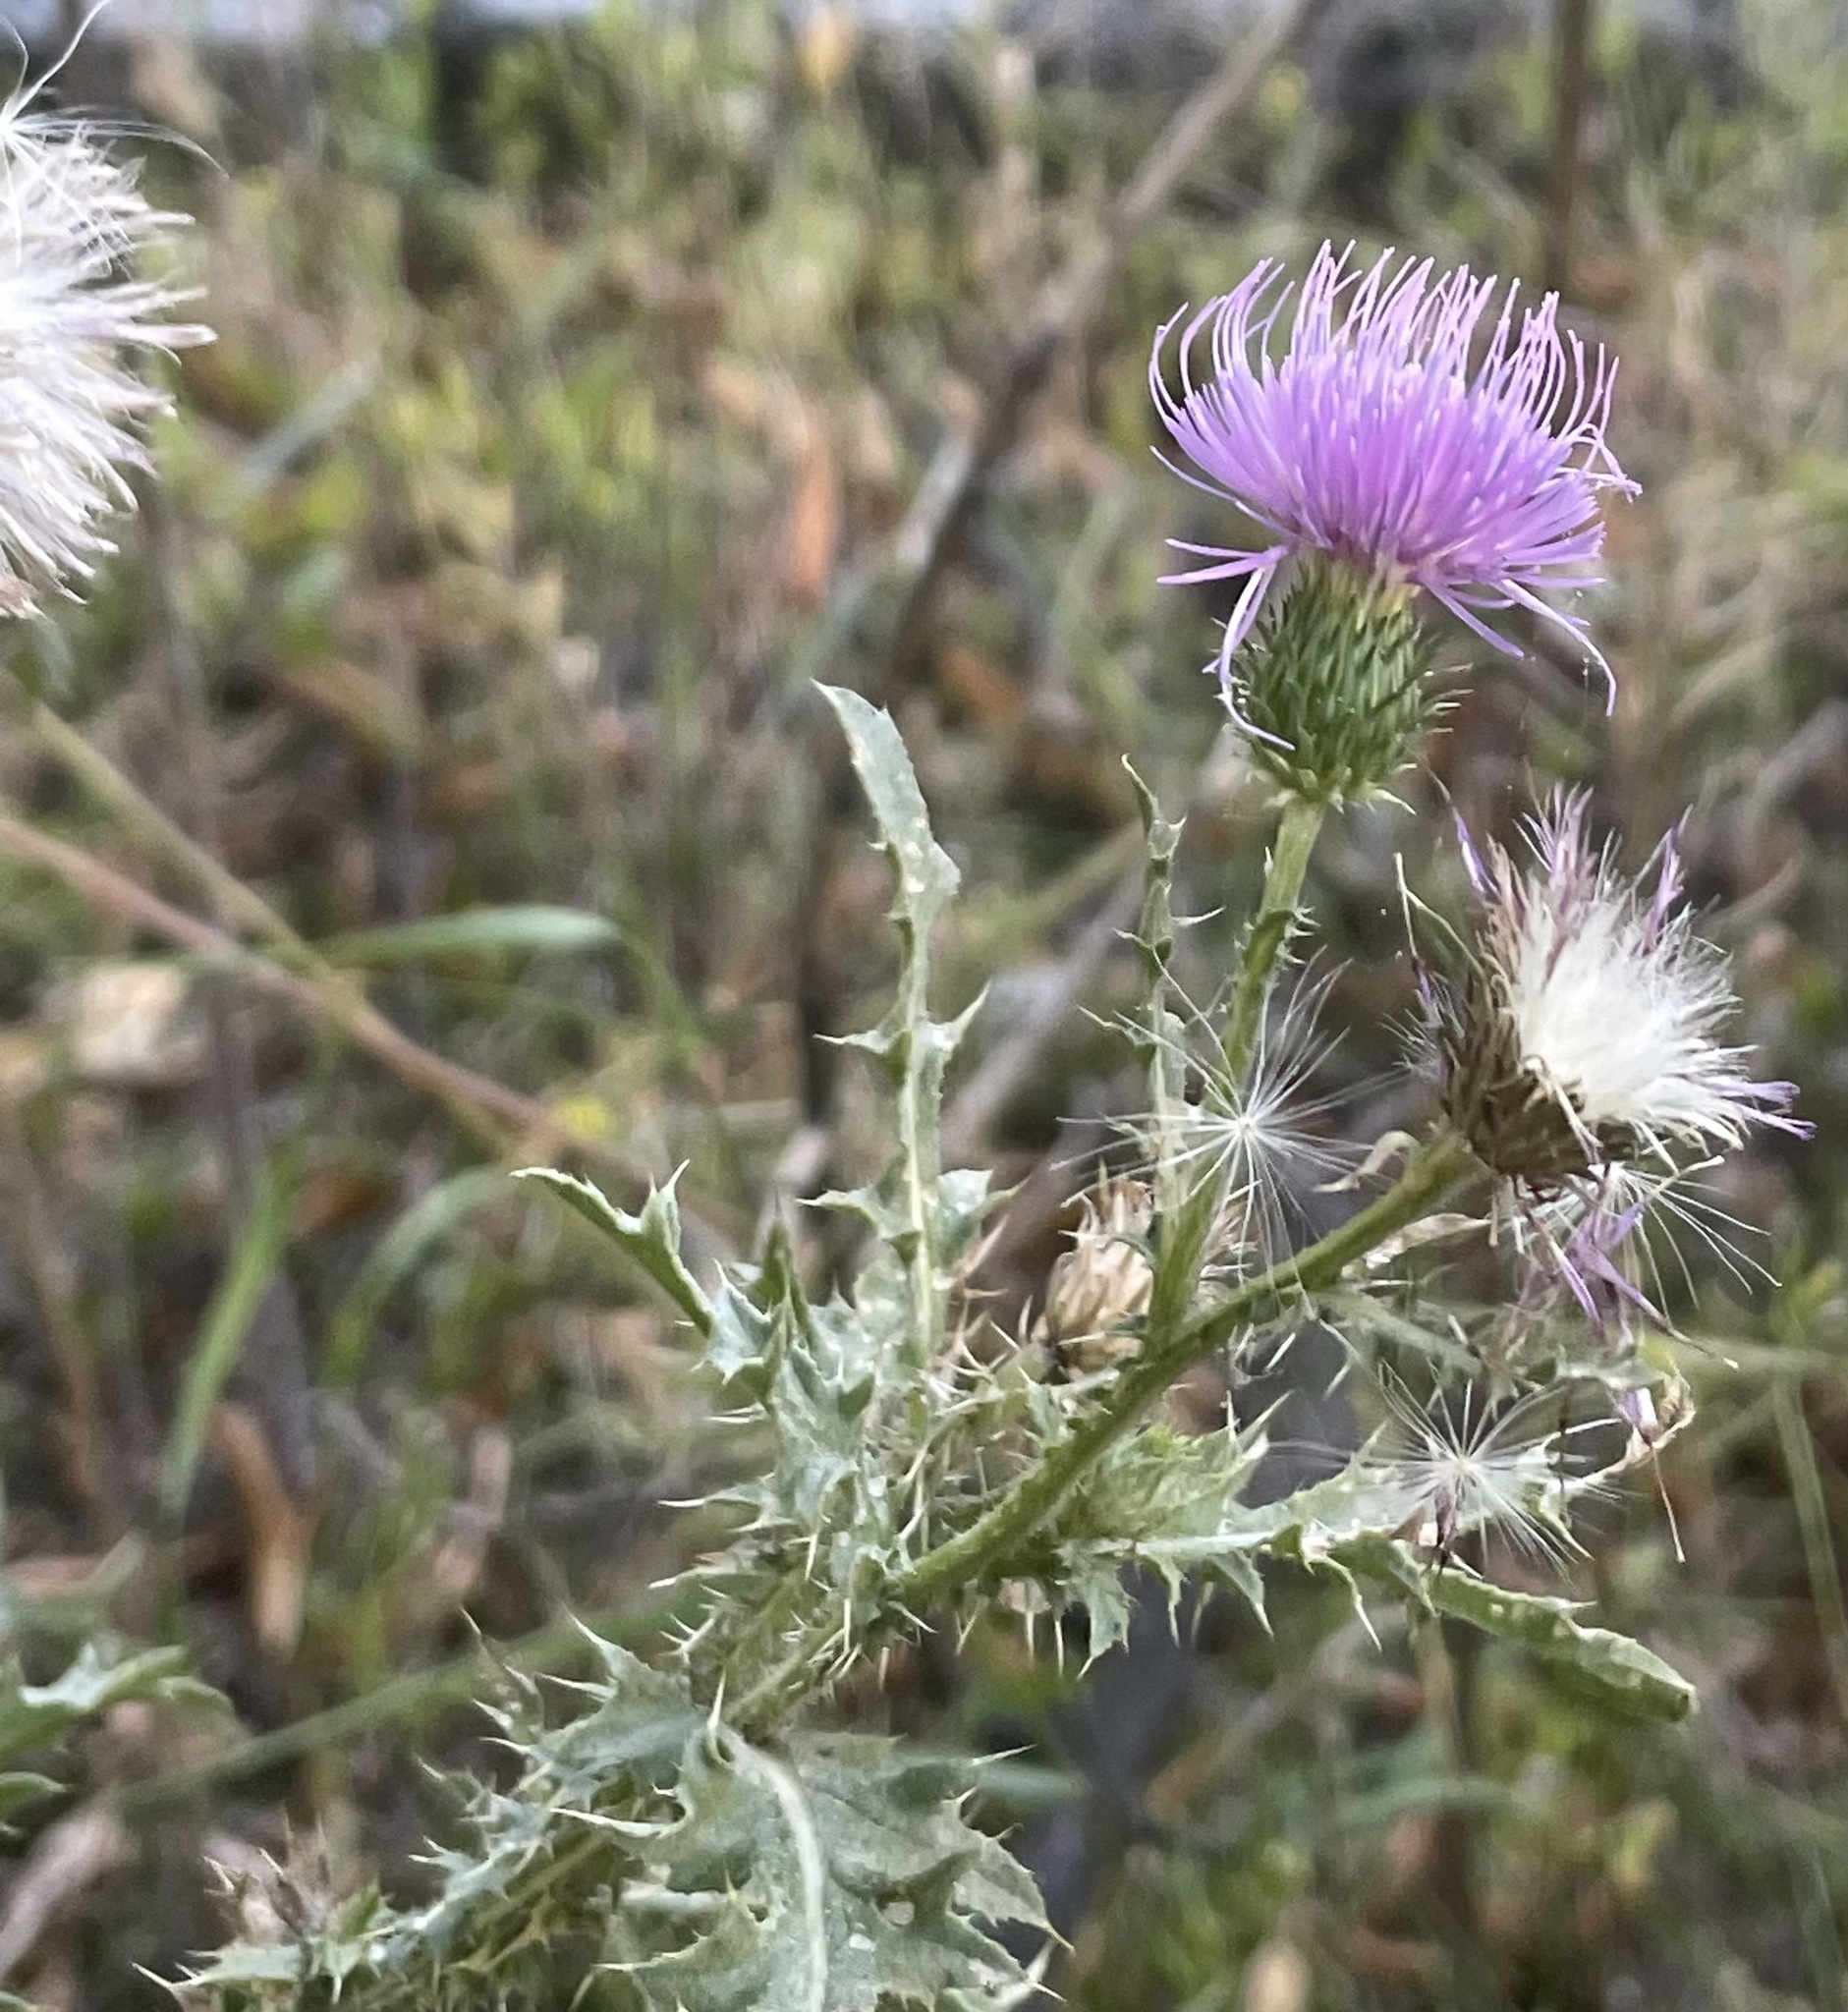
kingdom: Plantae
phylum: Tracheophyta
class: Magnoliopsida
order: Asterales
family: Asteraceae
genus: Cirsium
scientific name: Cirsium vulgare
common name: Bull thistle
